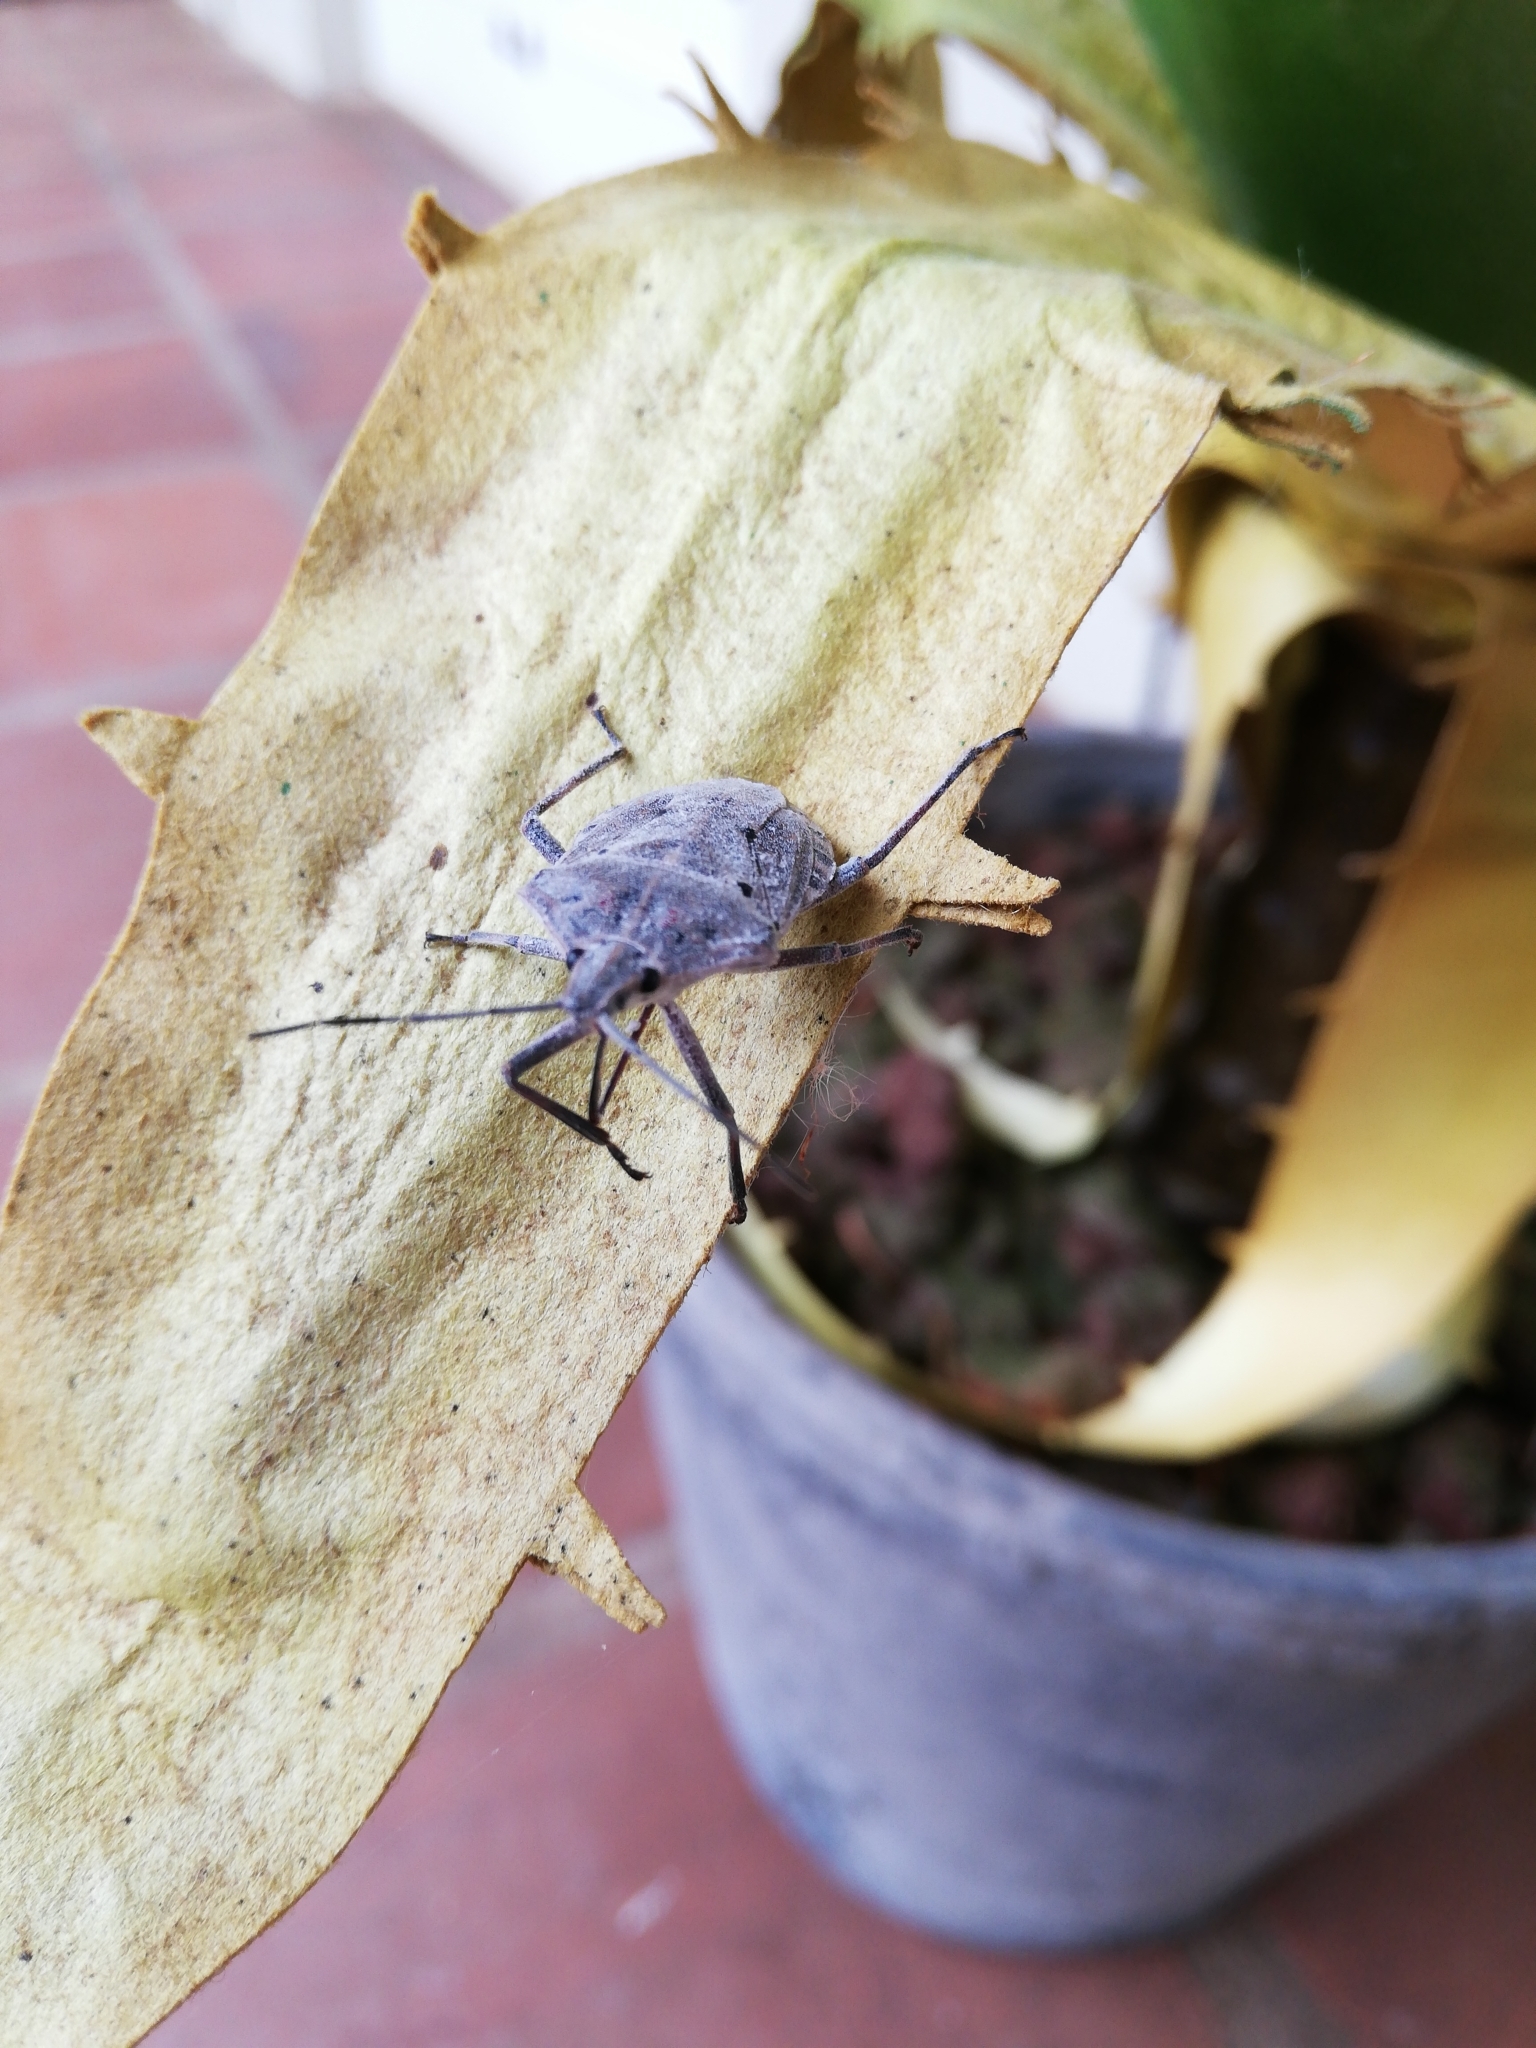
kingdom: Animalia
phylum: Arthropoda
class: Insecta
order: Hemiptera
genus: Peltasticus
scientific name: Peltasticus
